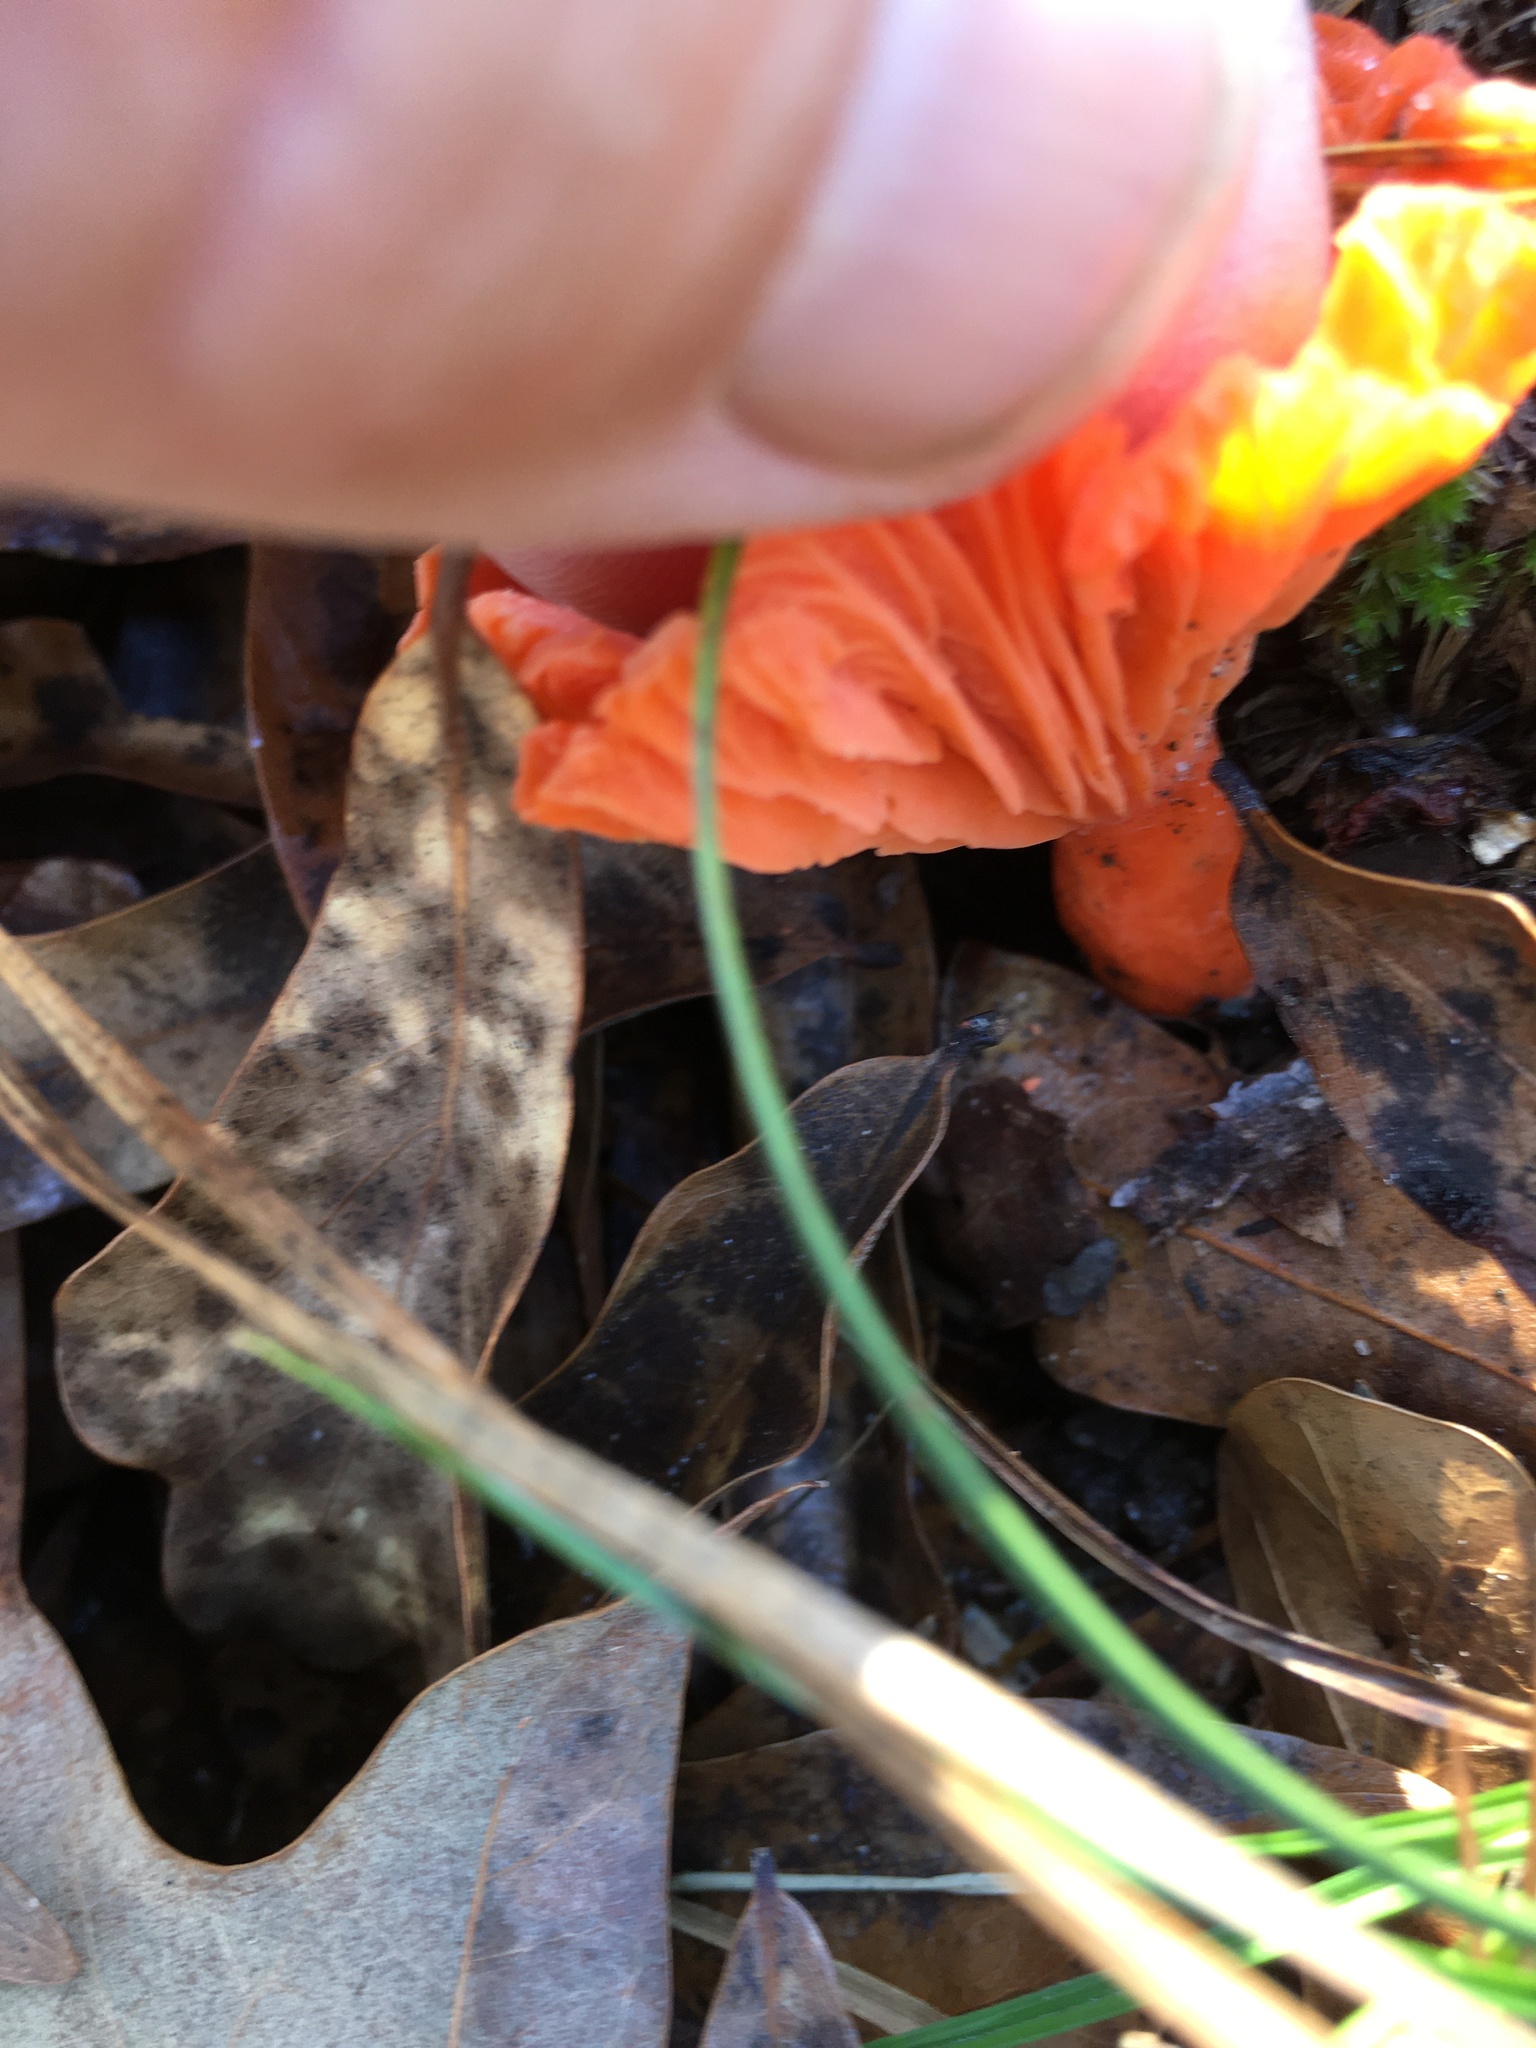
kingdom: Fungi
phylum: Basidiomycota
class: Agaricomycetes
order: Cantharellales
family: Hydnaceae
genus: Cantharellus
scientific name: Cantharellus cinnabarinus
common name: Cinnabar chanterelle
